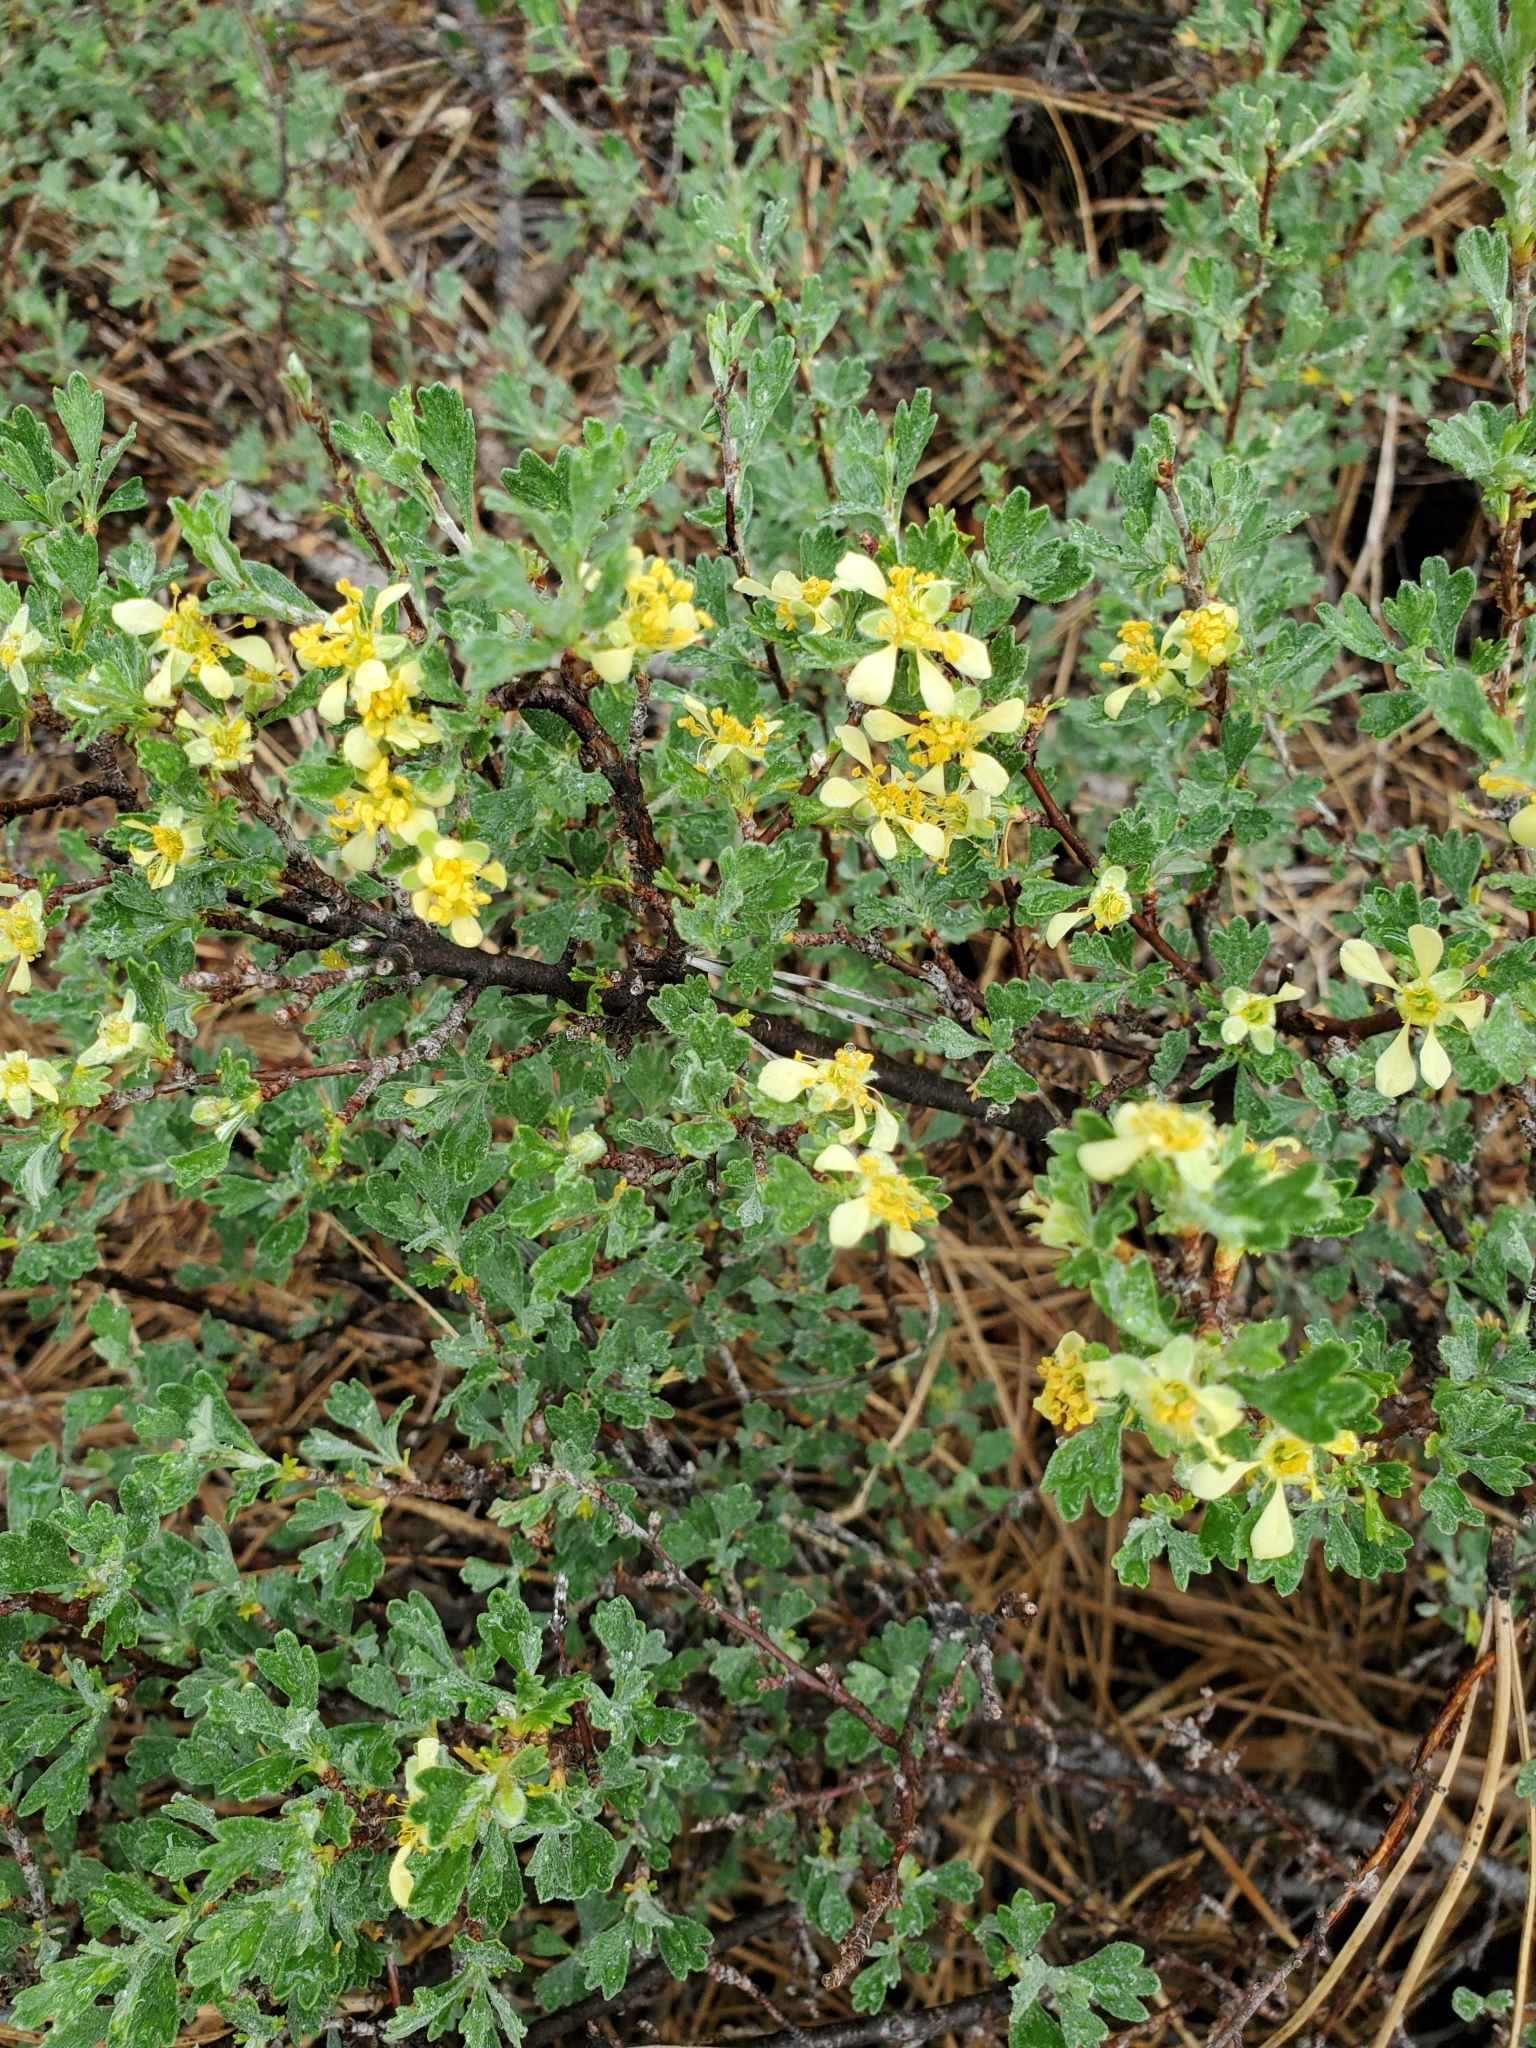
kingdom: Plantae
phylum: Tracheophyta
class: Magnoliopsida
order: Rosales
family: Rosaceae
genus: Purshia
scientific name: Purshia tridentata
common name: Antelope bitterbrush
